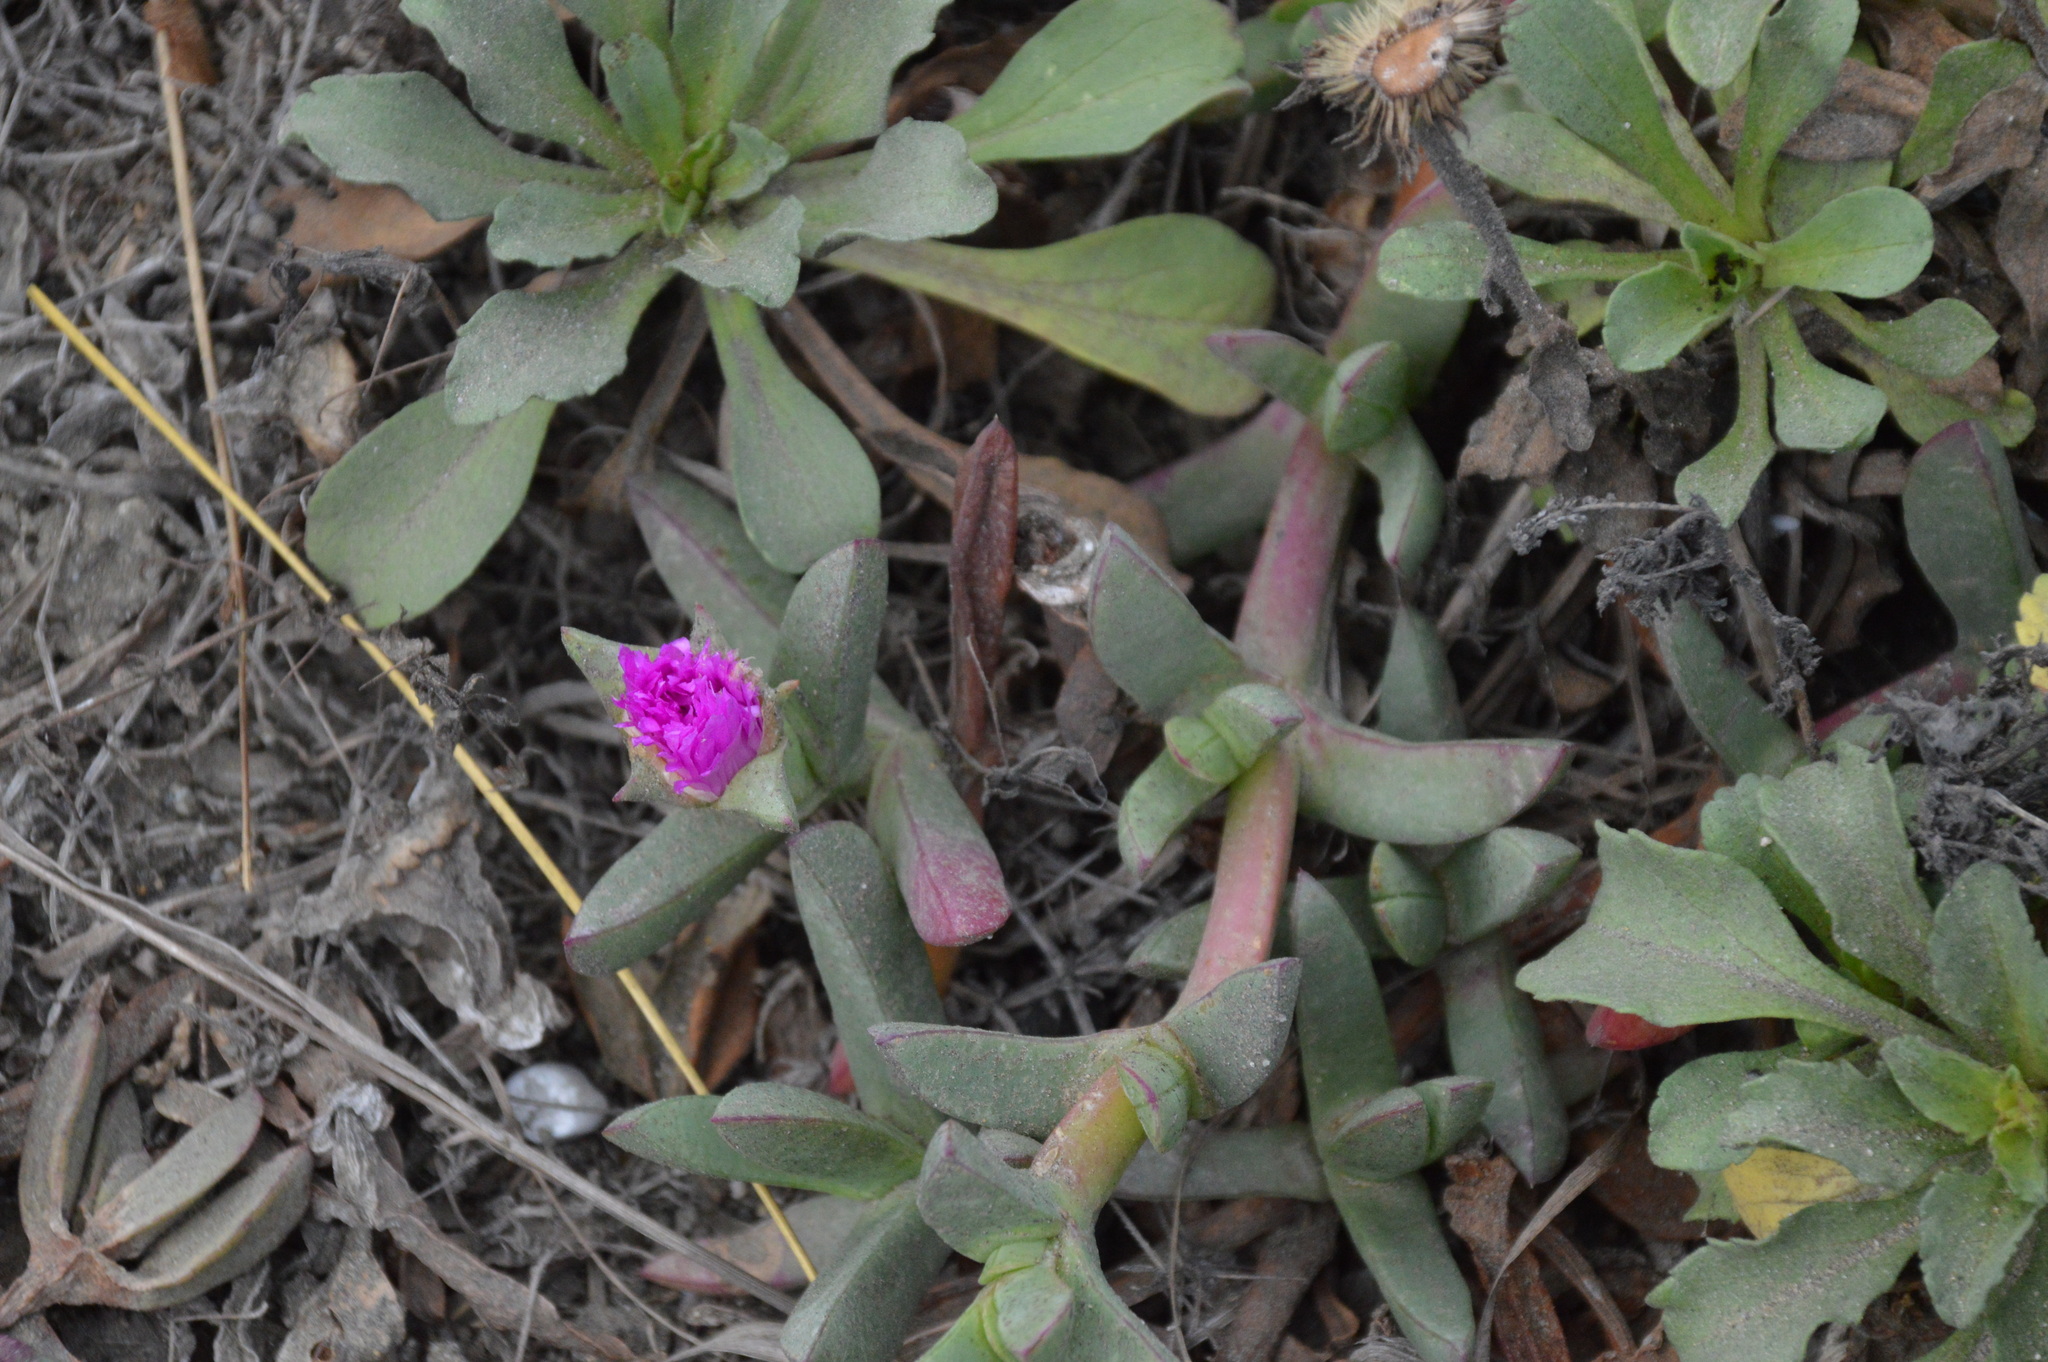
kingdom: Plantae
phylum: Tracheophyta
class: Magnoliopsida
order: Caryophyllales
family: Aizoaceae
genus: Carpobrotus
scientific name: Carpobrotus chilensis
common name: Sea fig
